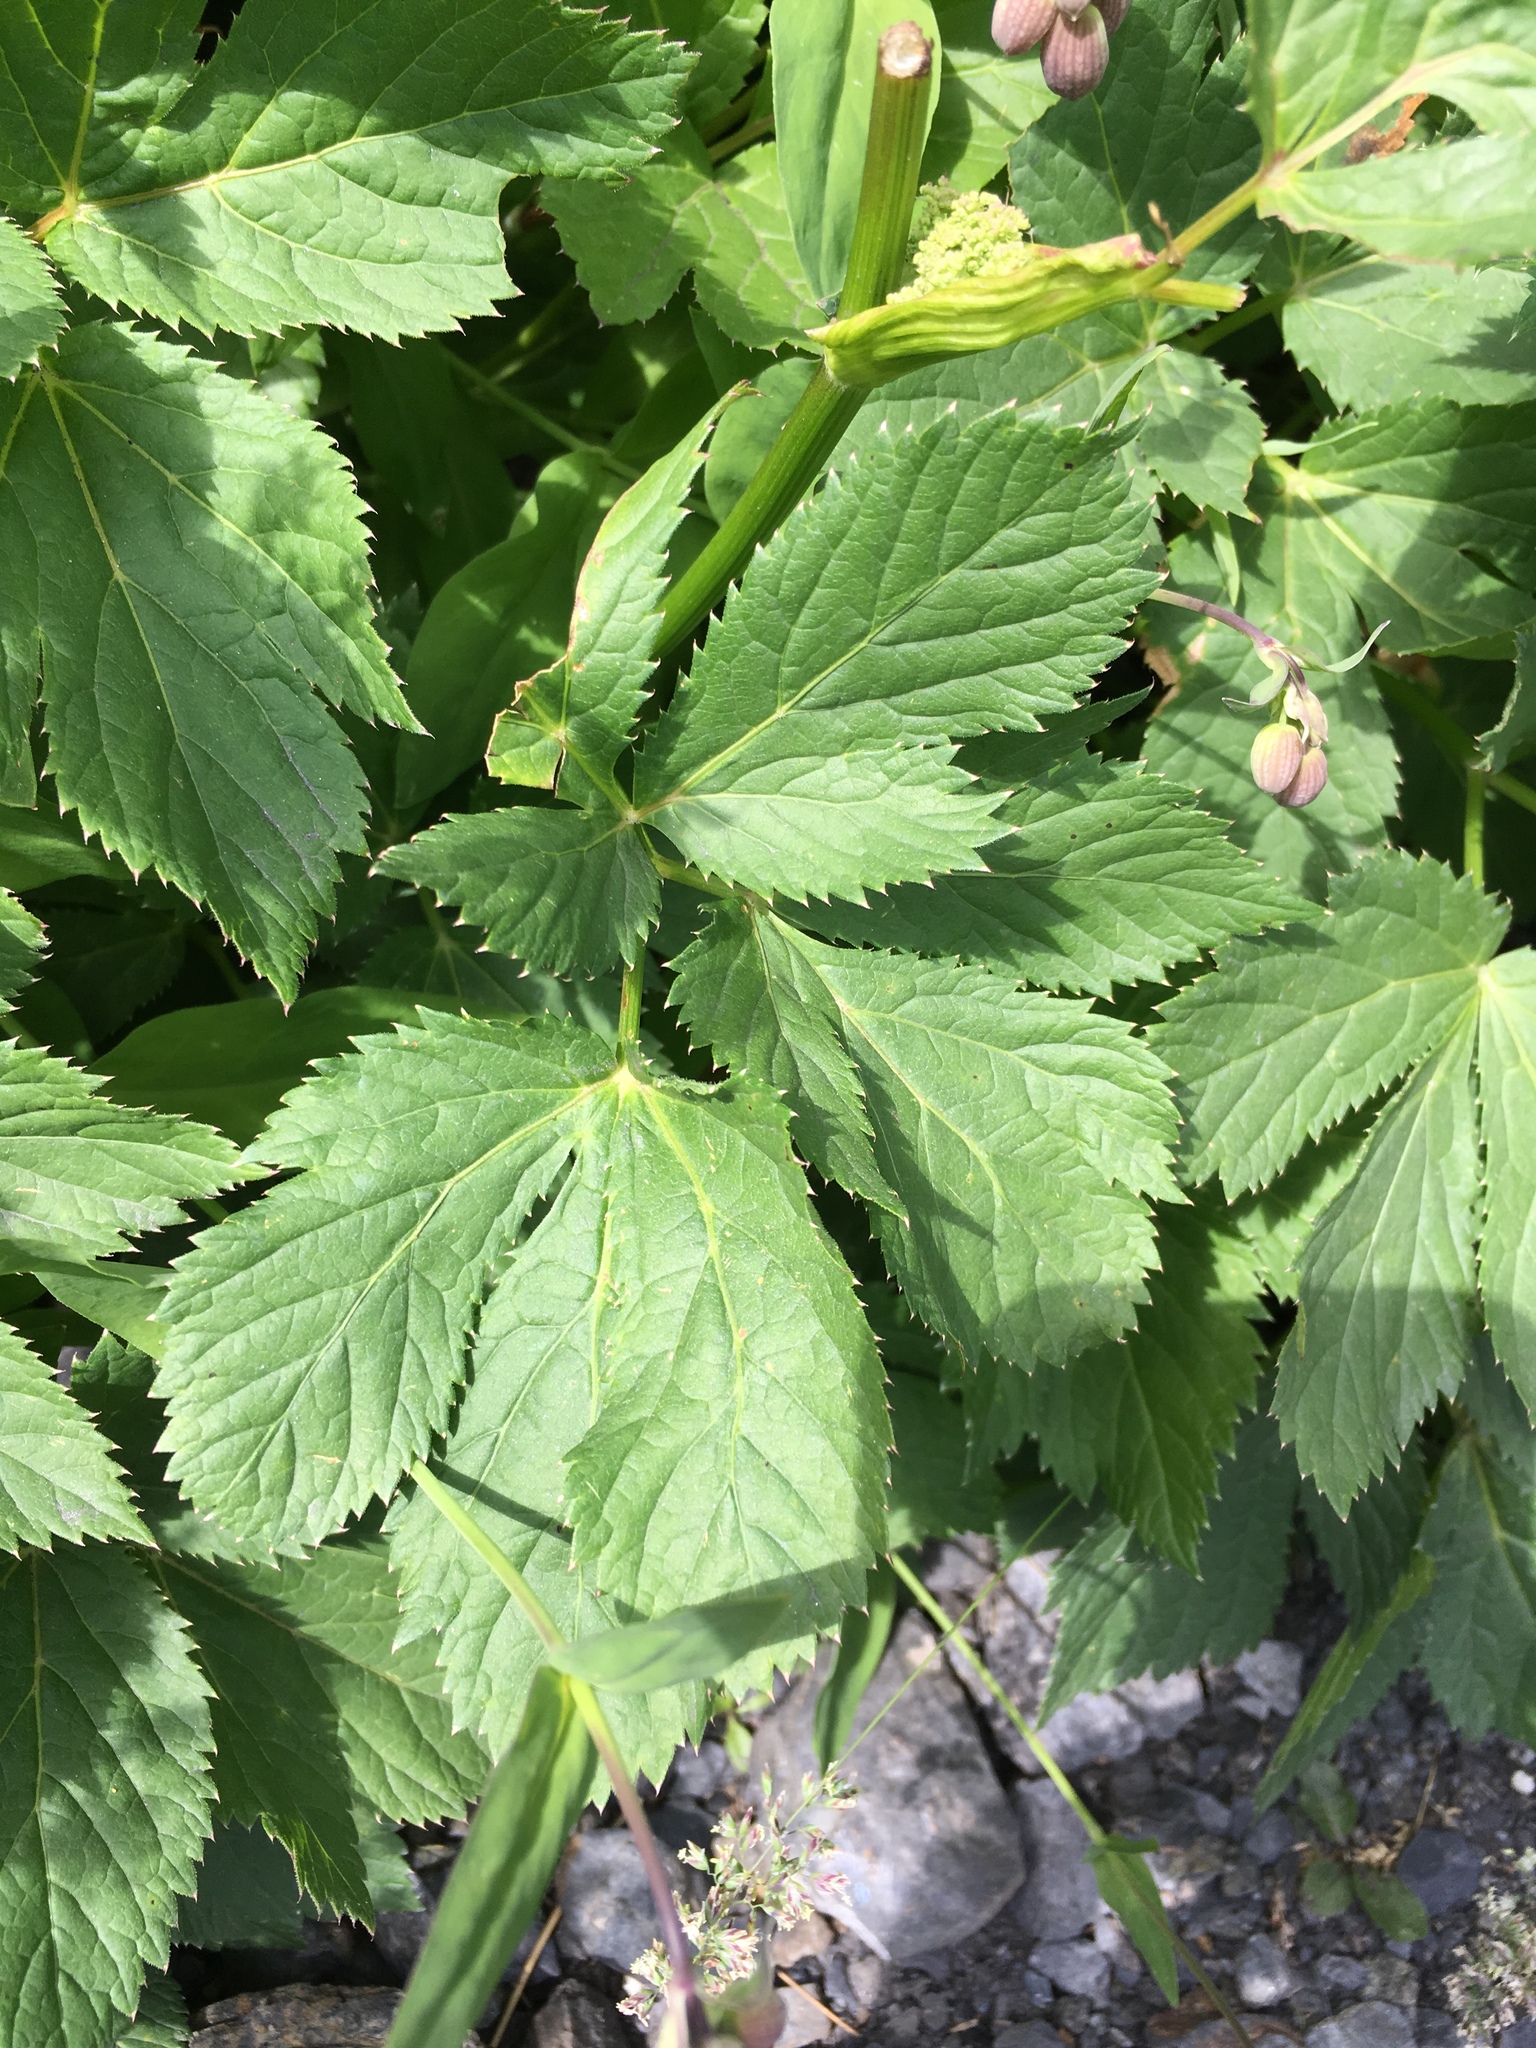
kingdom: Plantae
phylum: Tracheophyta
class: Magnoliopsida
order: Apiales
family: Apiaceae
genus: Imperatoria
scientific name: Imperatoria ostruthium
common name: Masterwort
